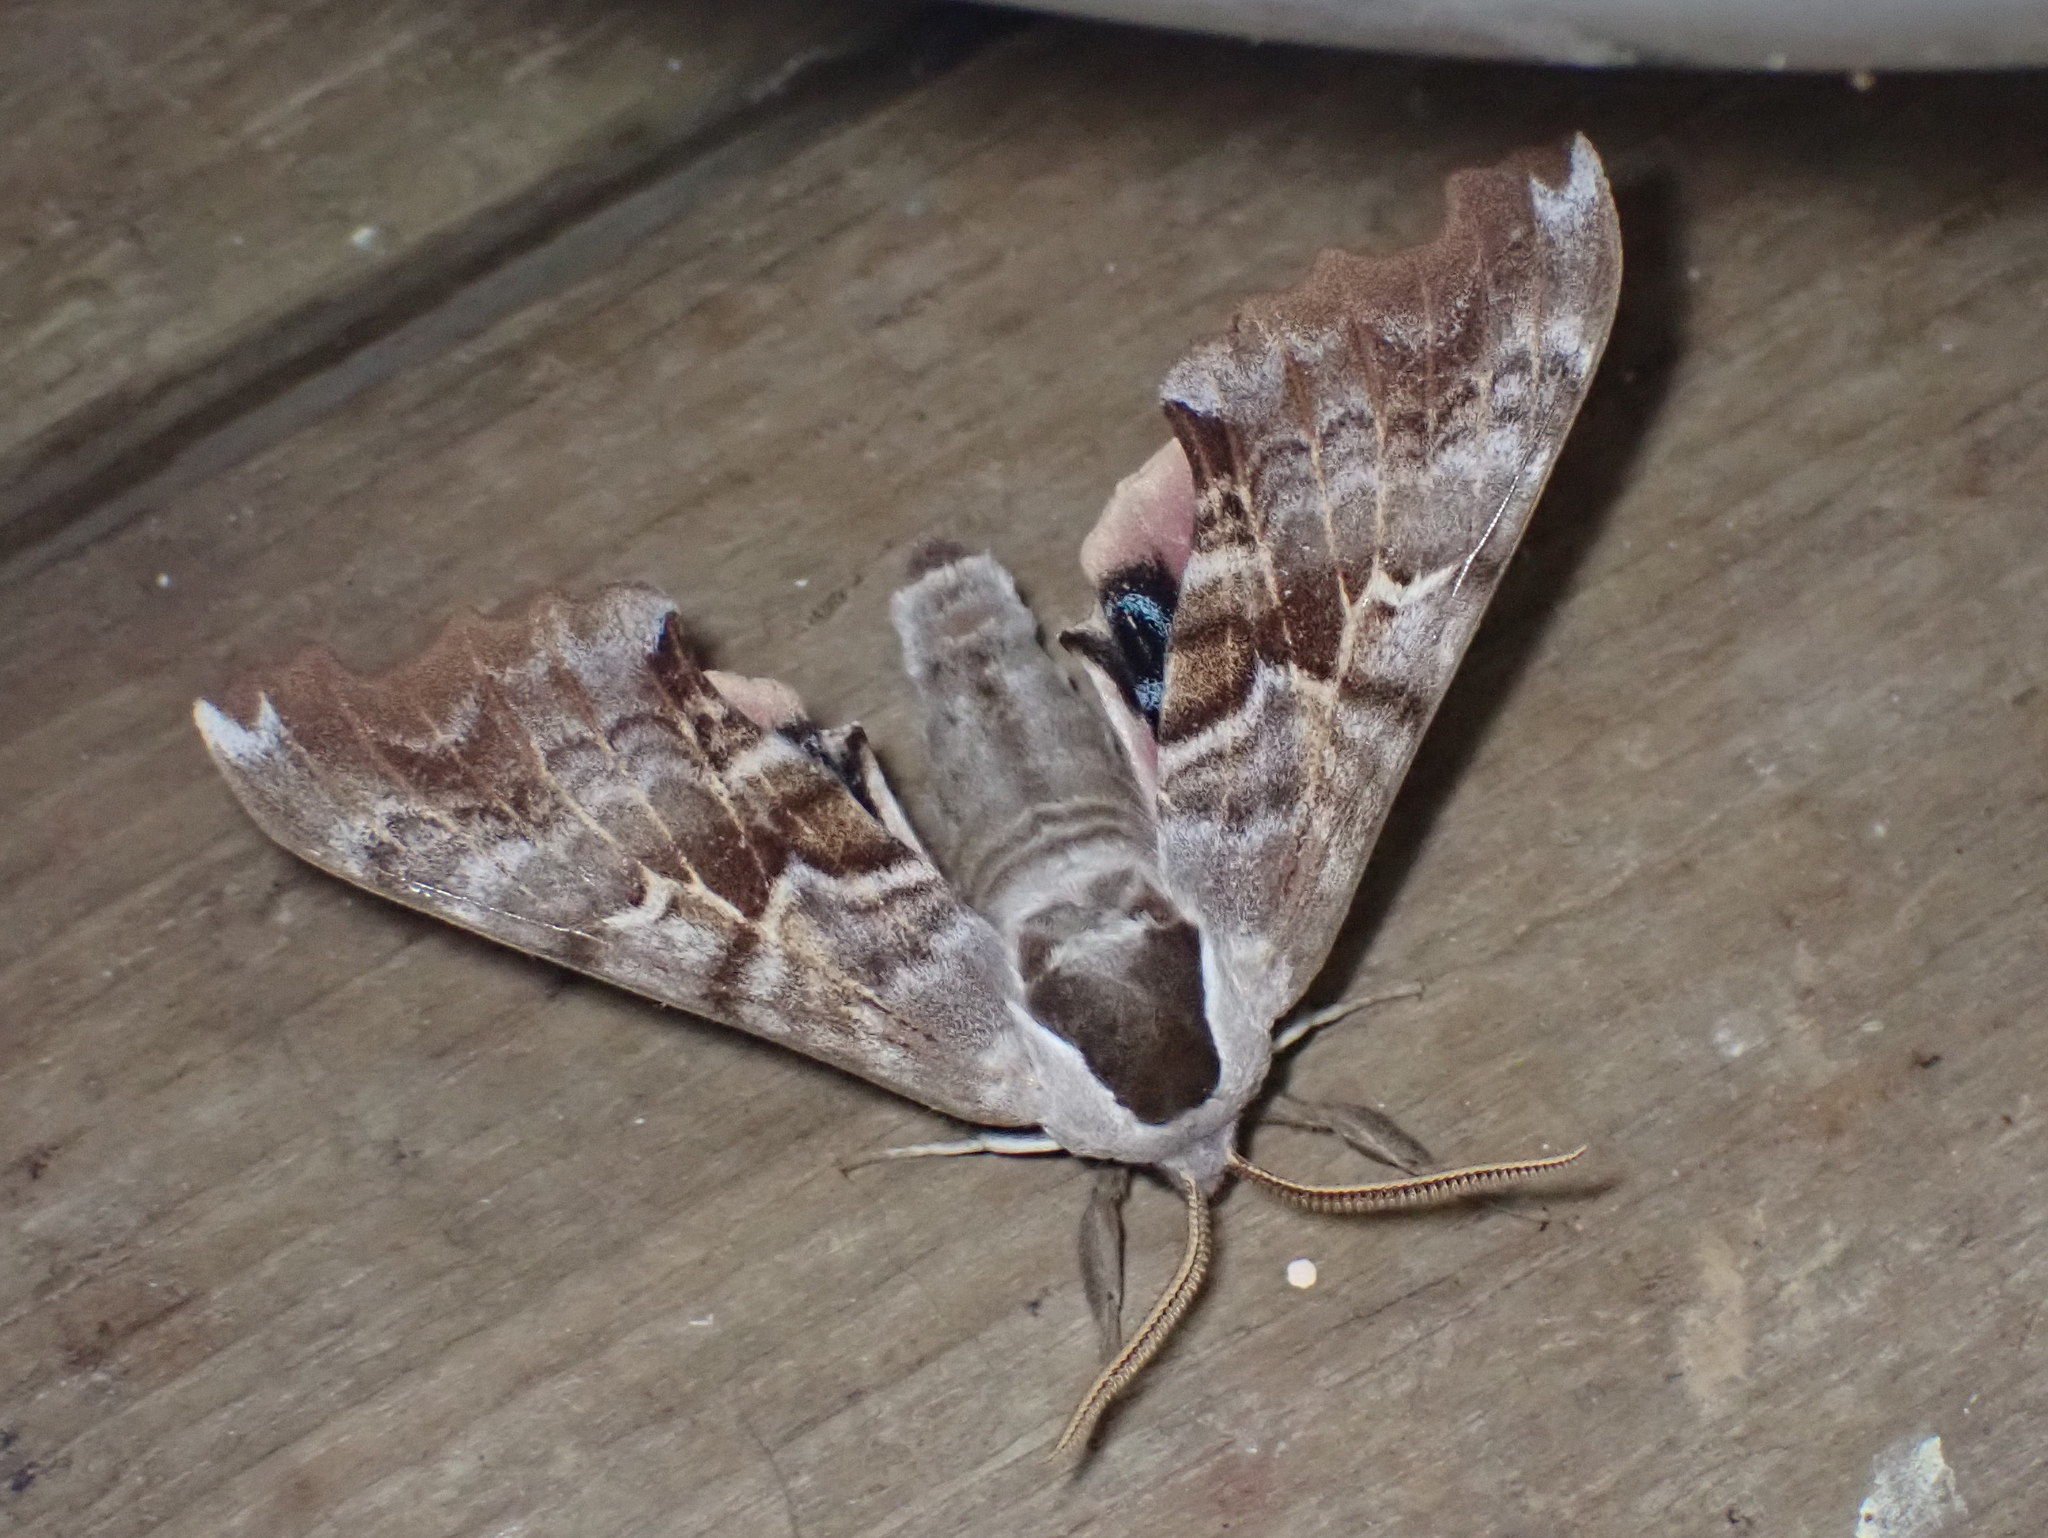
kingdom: Animalia
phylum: Arthropoda
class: Insecta
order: Lepidoptera
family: Sphingidae
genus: Smerinthus
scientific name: Smerinthus cerisyi
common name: Cerisy's sphinx moth
